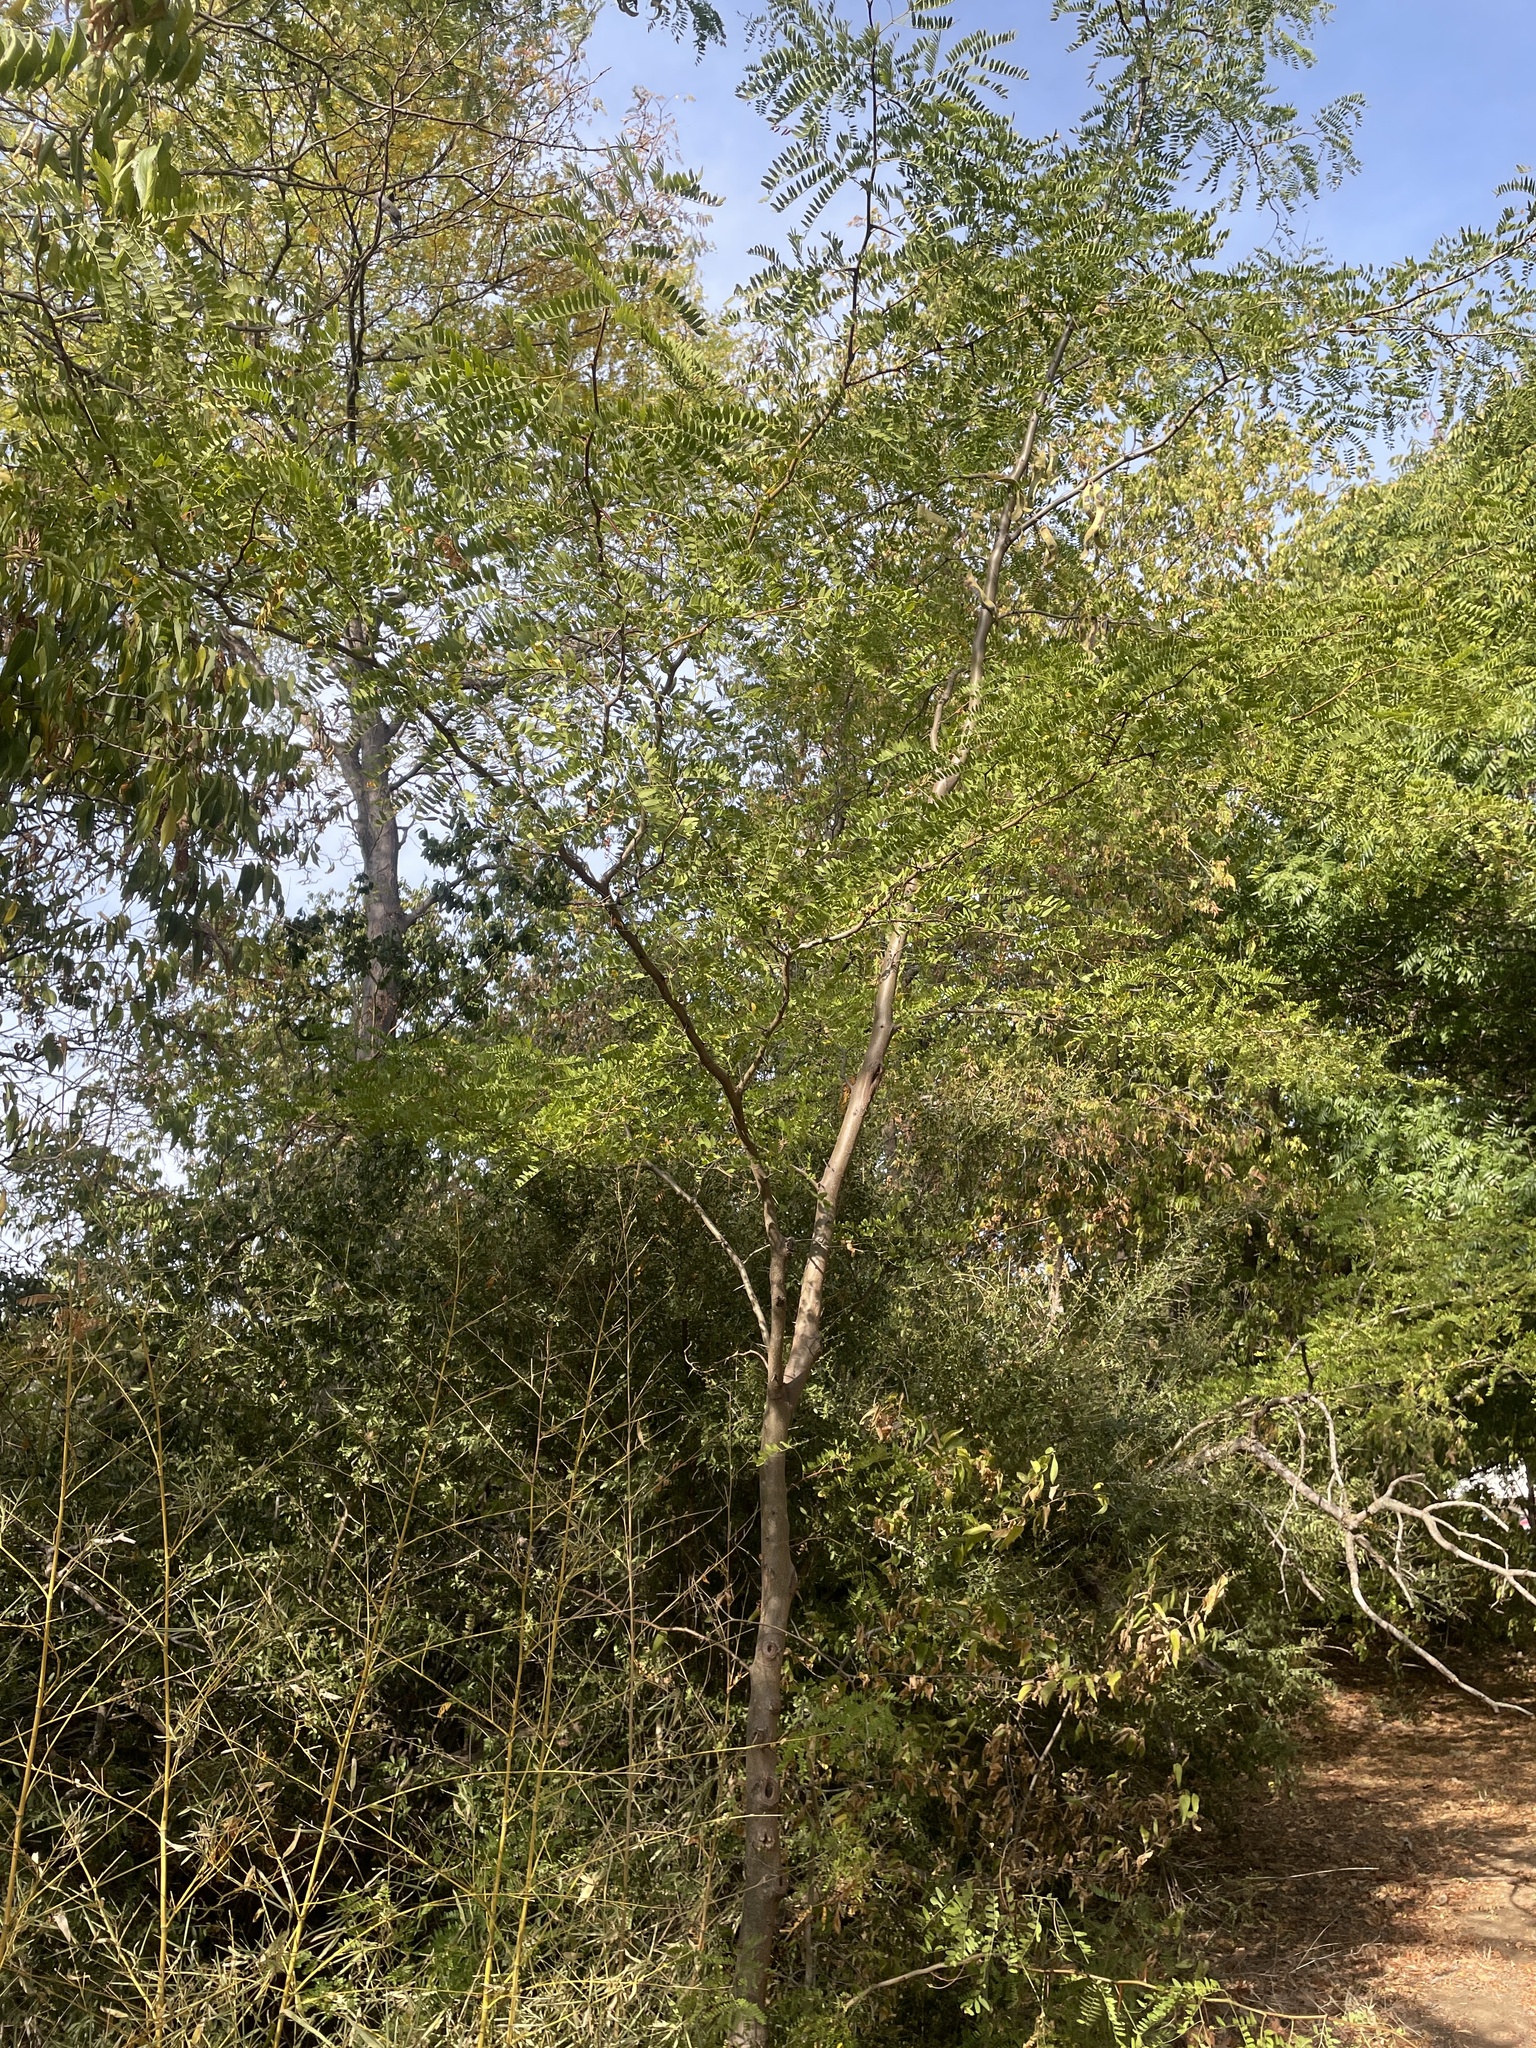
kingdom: Plantae
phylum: Tracheophyta
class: Magnoliopsida
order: Fabales
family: Fabaceae
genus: Gleditsia
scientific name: Gleditsia triacanthos
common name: Common honeylocust
